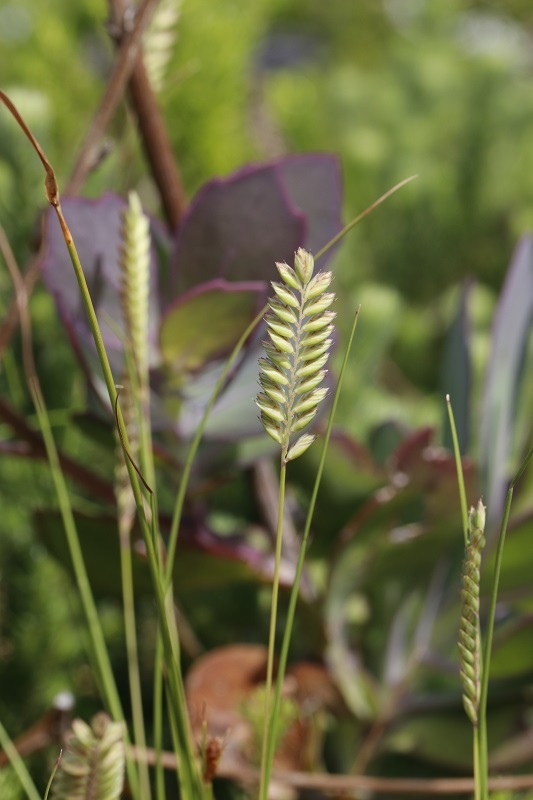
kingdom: Plantae
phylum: Tracheophyta
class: Liliopsida
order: Poales
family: Poaceae
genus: Tribolium
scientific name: Tribolium uniolae
